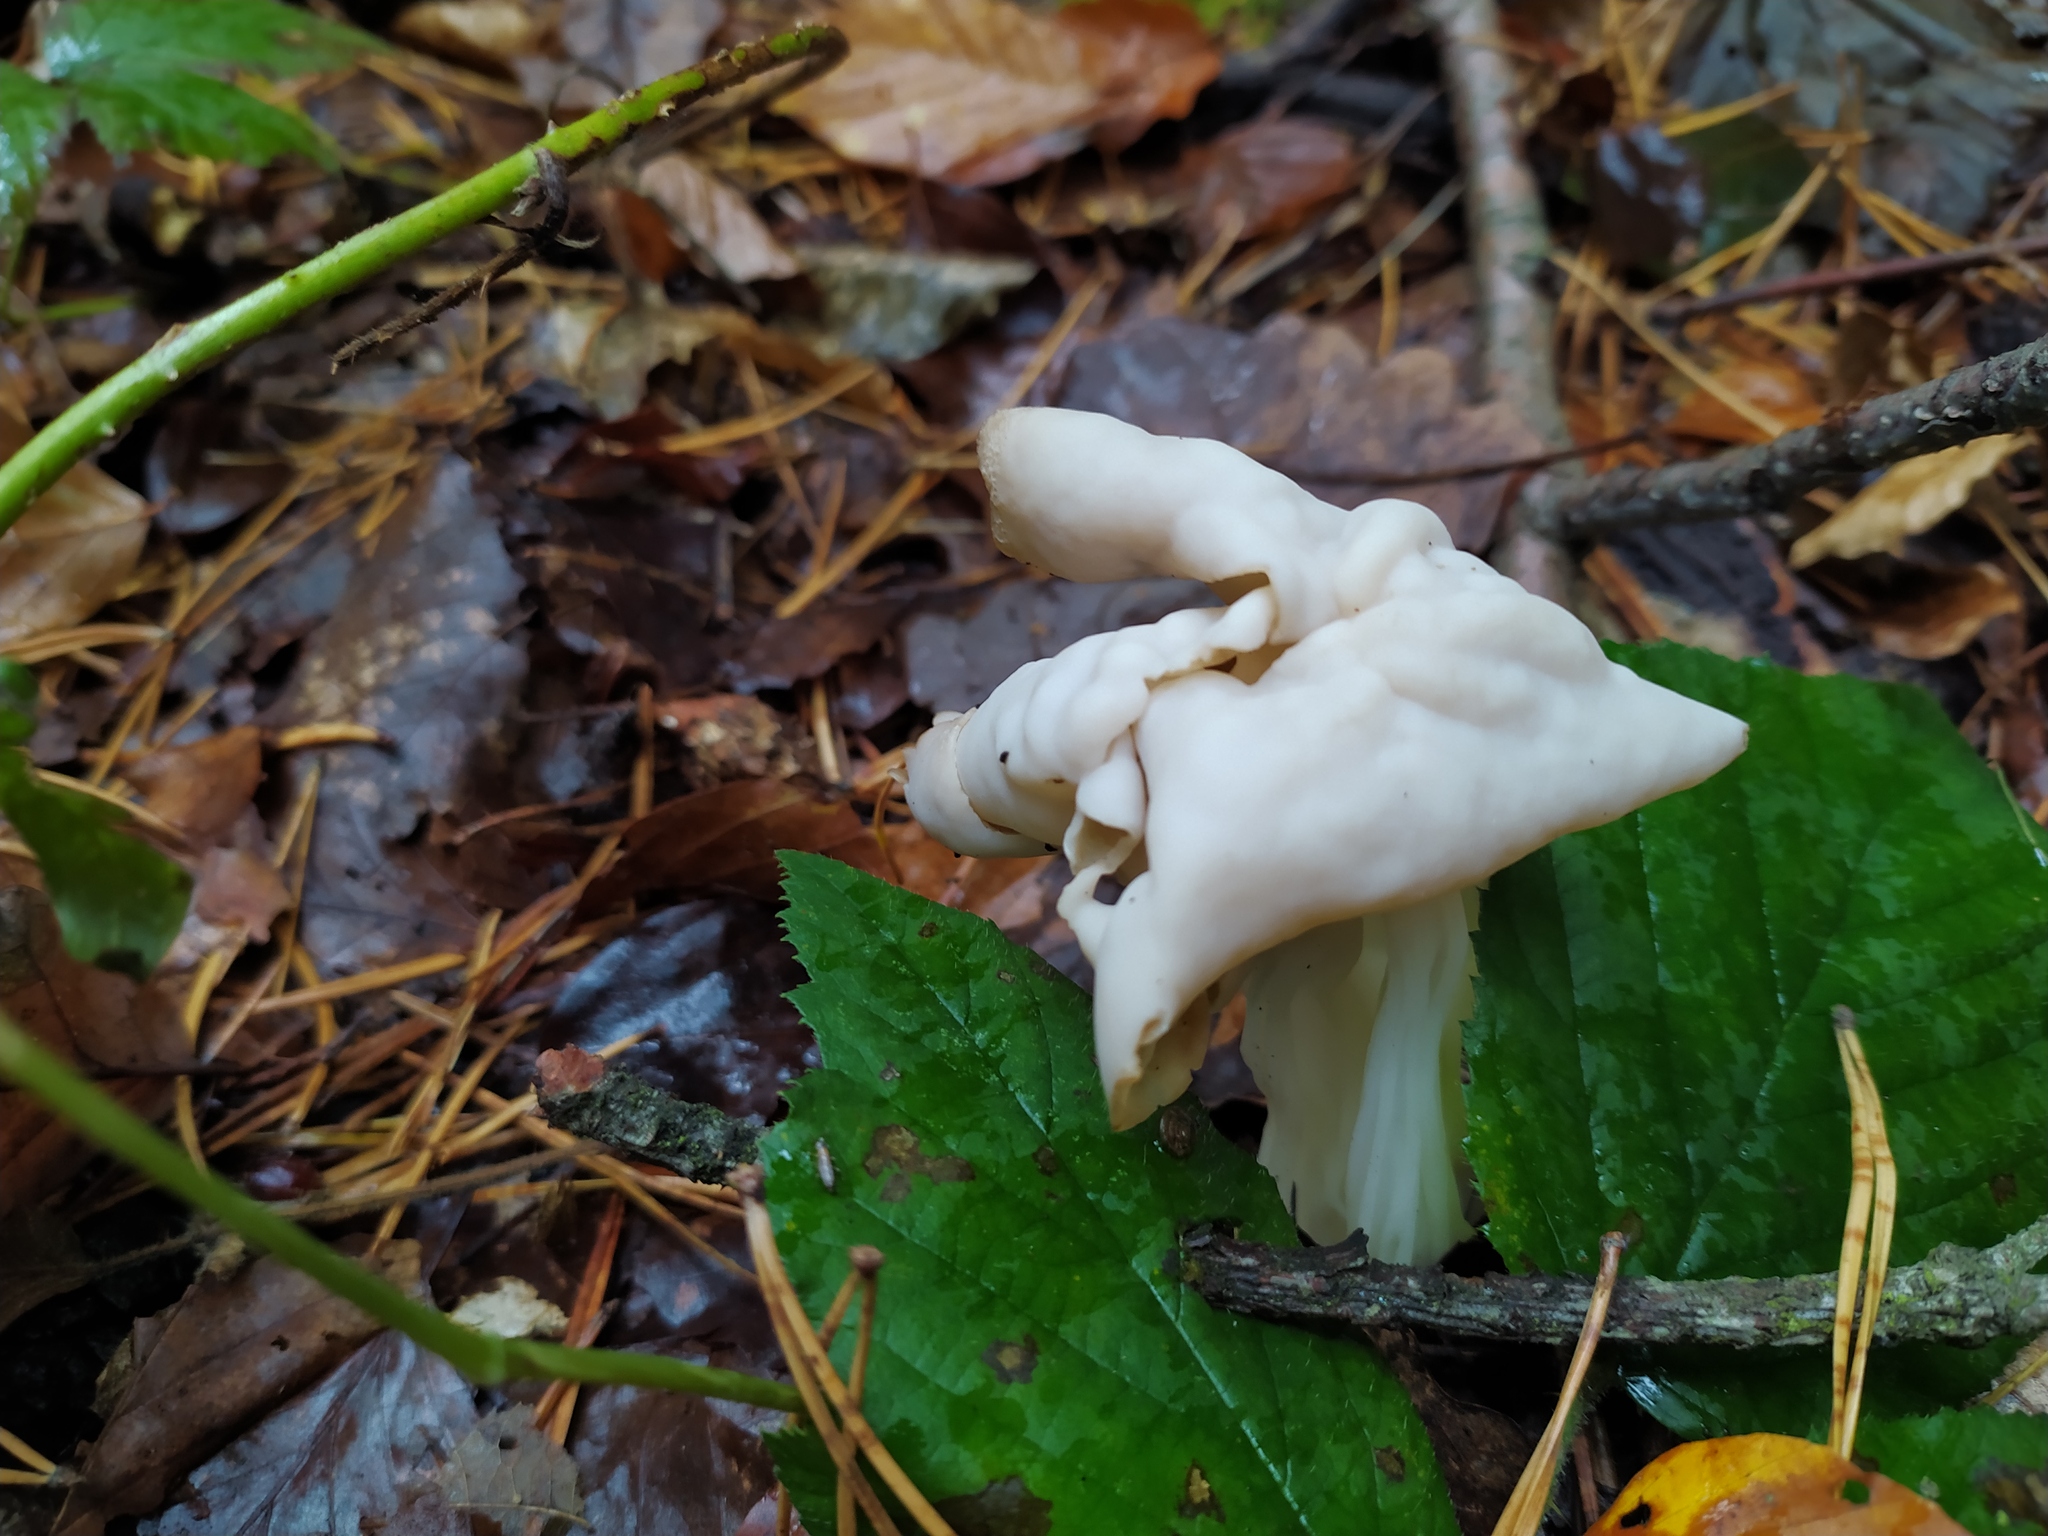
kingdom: Fungi
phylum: Ascomycota
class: Pezizomycetes
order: Pezizales
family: Helvellaceae
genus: Helvella
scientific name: Helvella crispa
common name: White saddle
